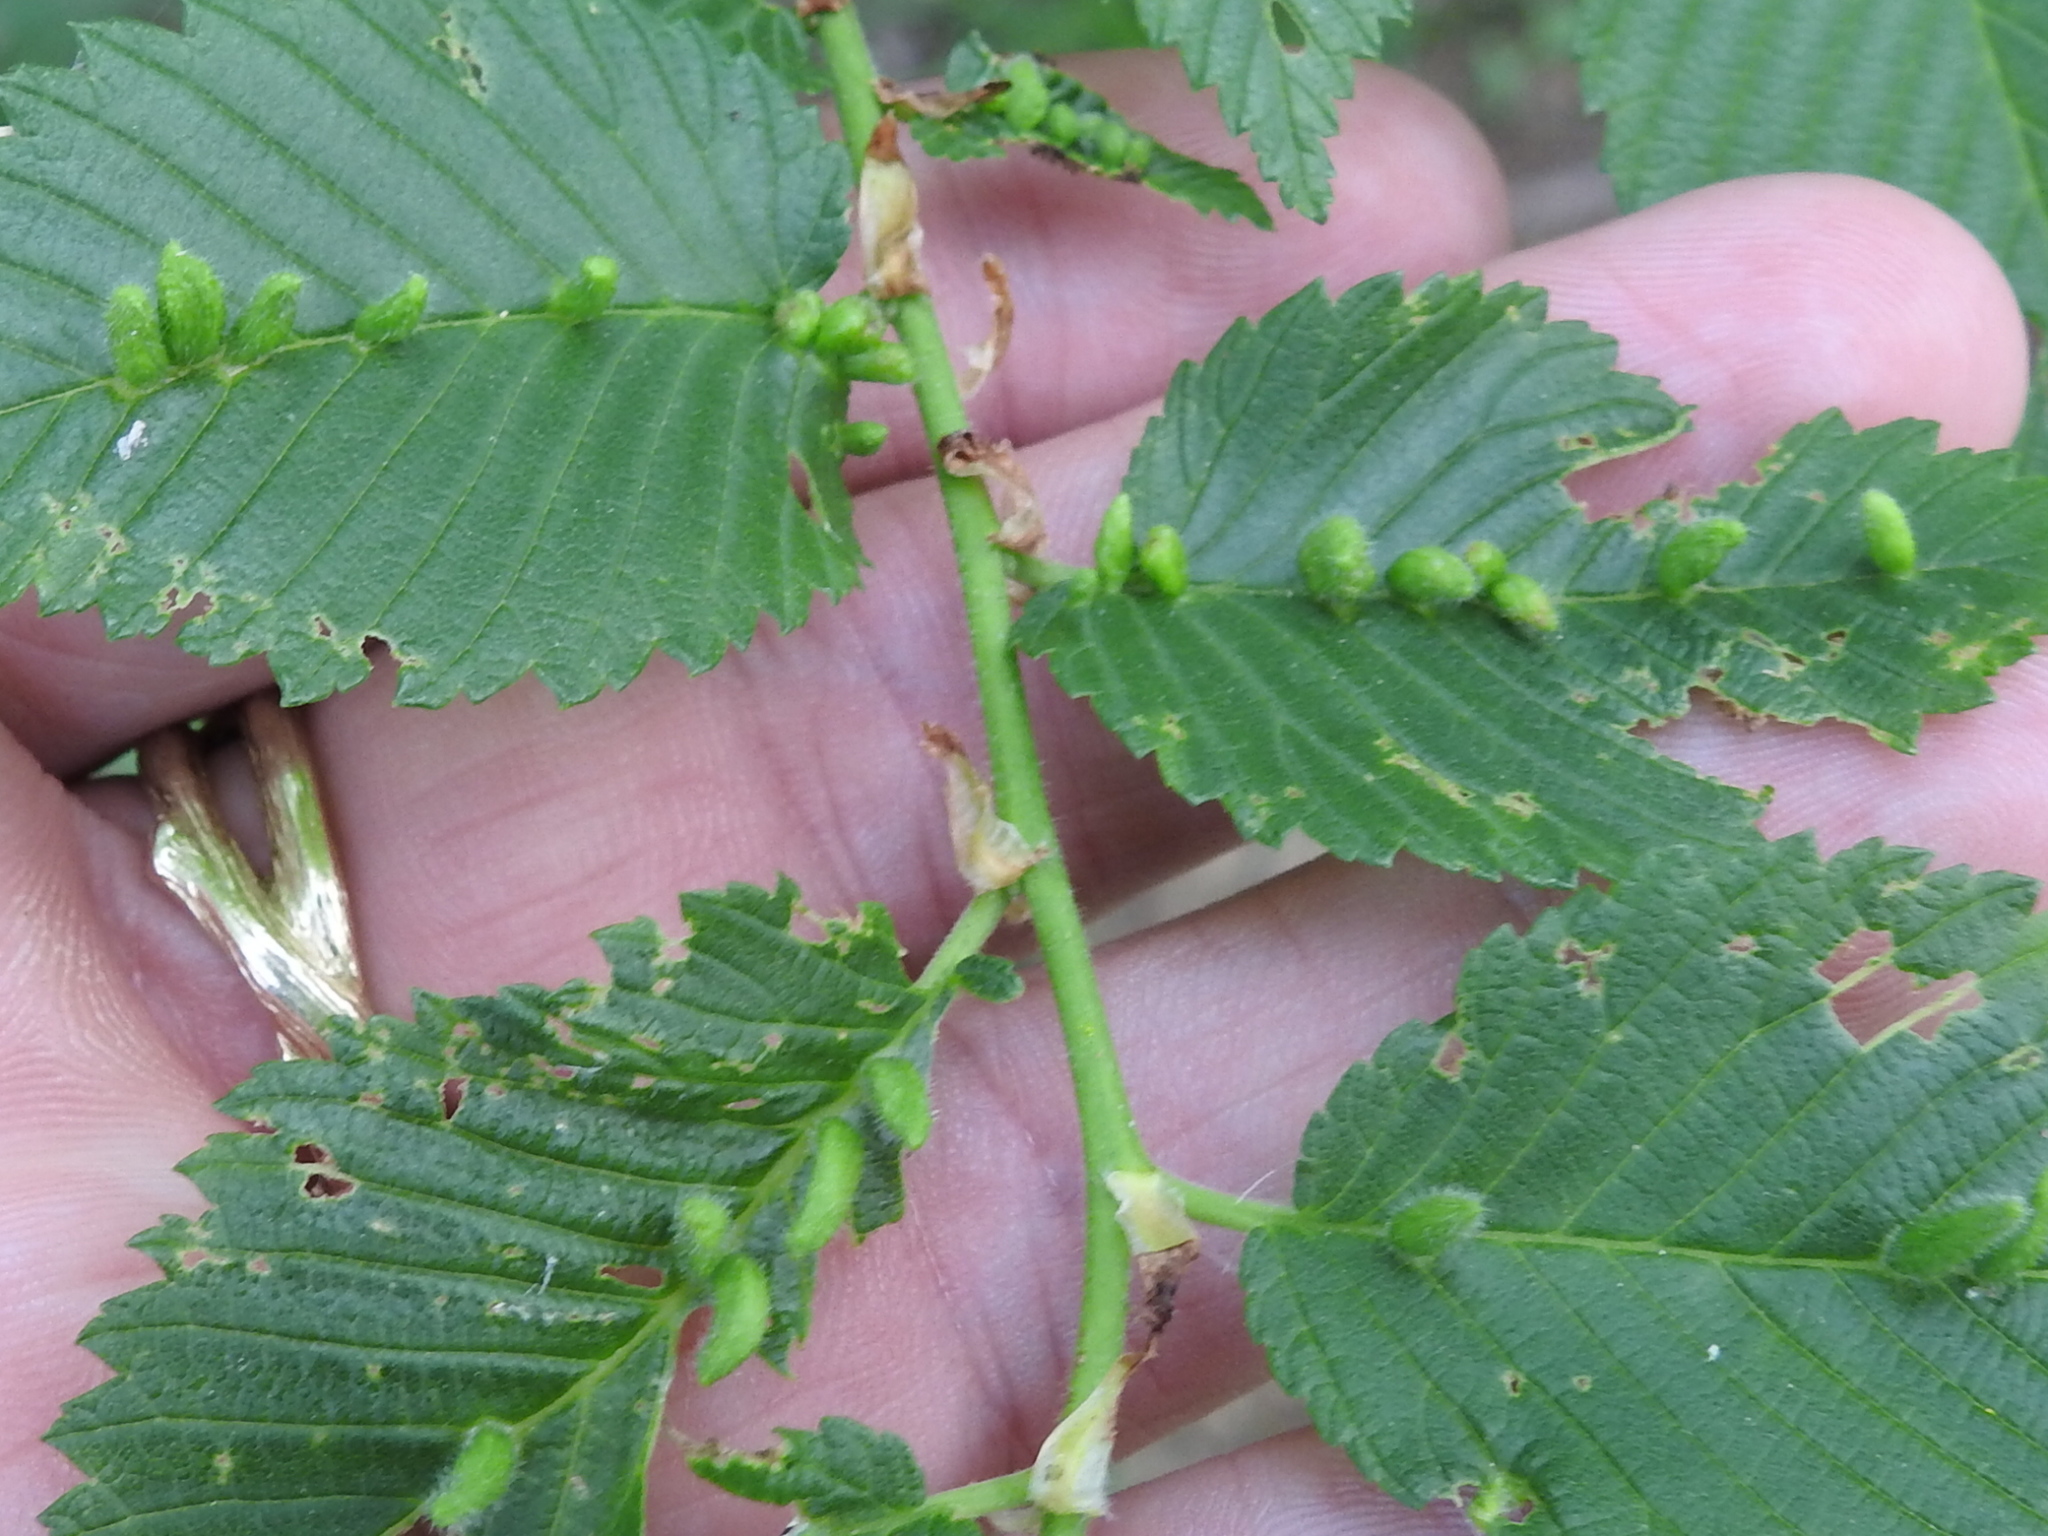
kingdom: Animalia
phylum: Arthropoda
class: Arachnida
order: Trombidiformes
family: Eriophyidae
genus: Aceria
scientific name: Aceria
